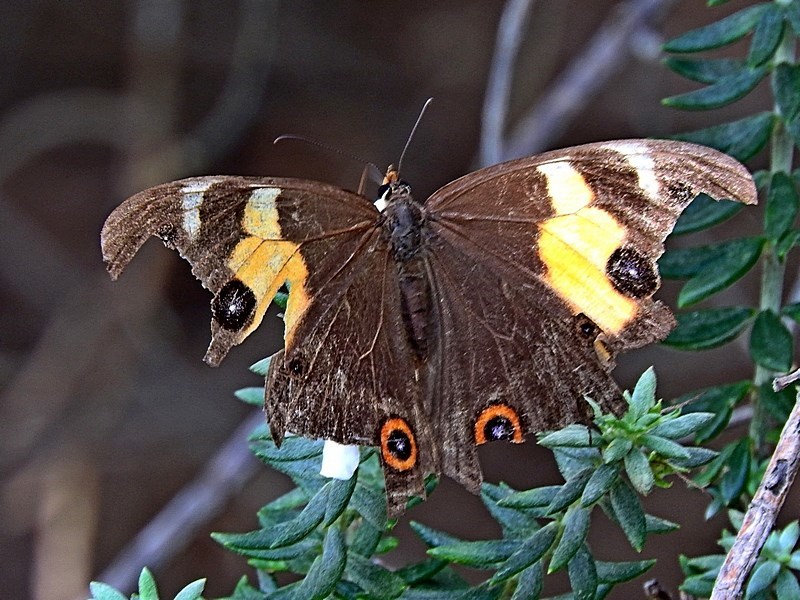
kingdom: Animalia
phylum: Arthropoda
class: Insecta
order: Lepidoptera
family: Nymphalidae
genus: Tisiphone
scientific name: Tisiphone abeona
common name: Swordgrass brown
